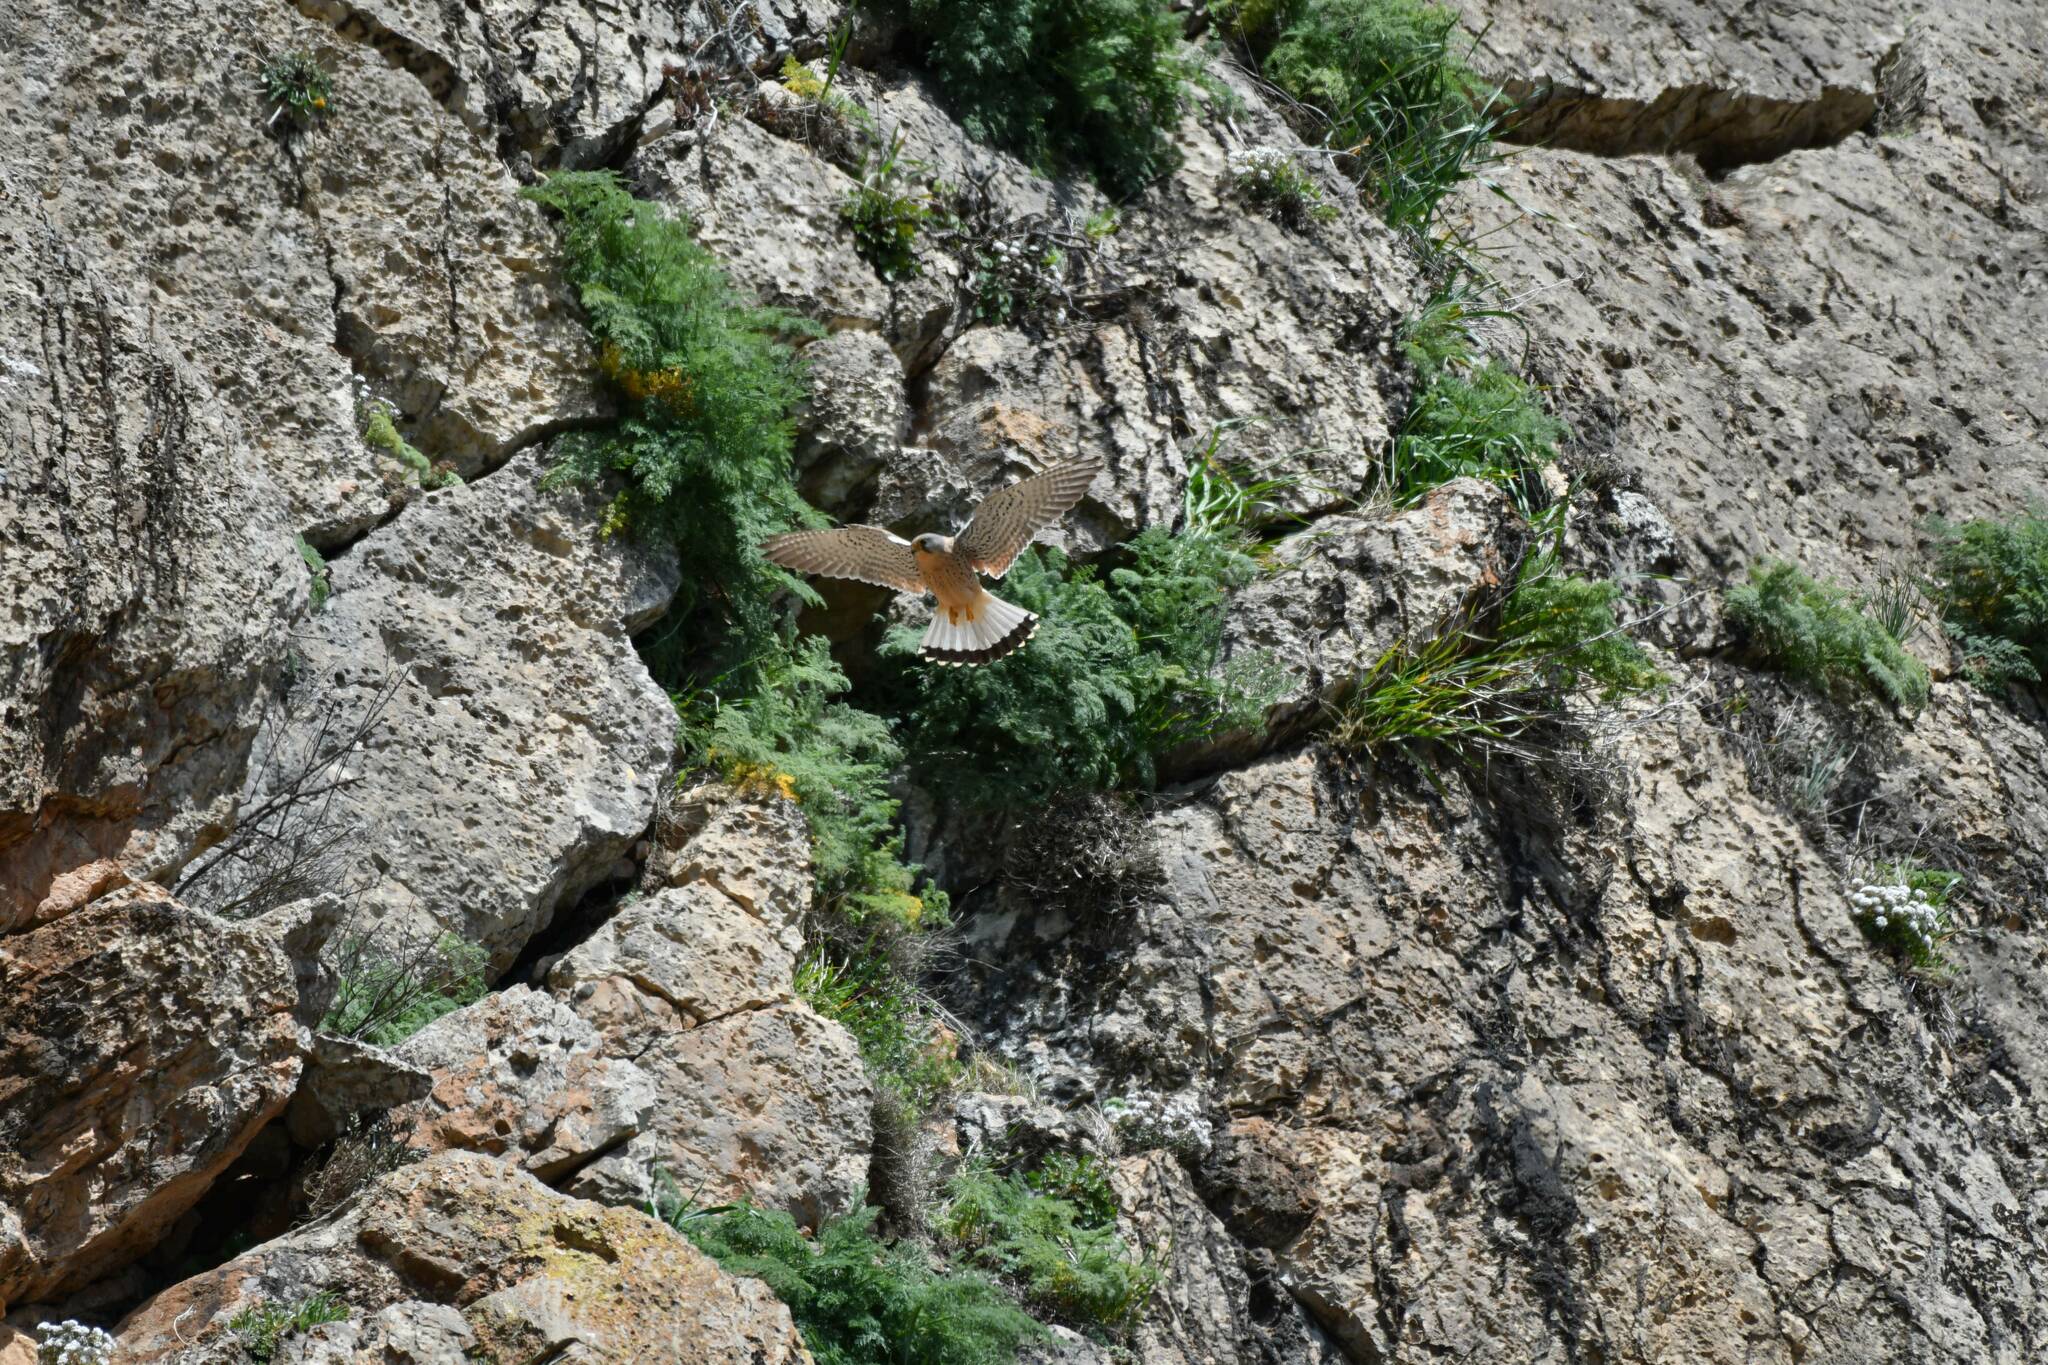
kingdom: Animalia
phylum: Chordata
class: Aves
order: Falconiformes
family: Falconidae
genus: Falco
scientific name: Falco naumanni
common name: Lesser kestrel
